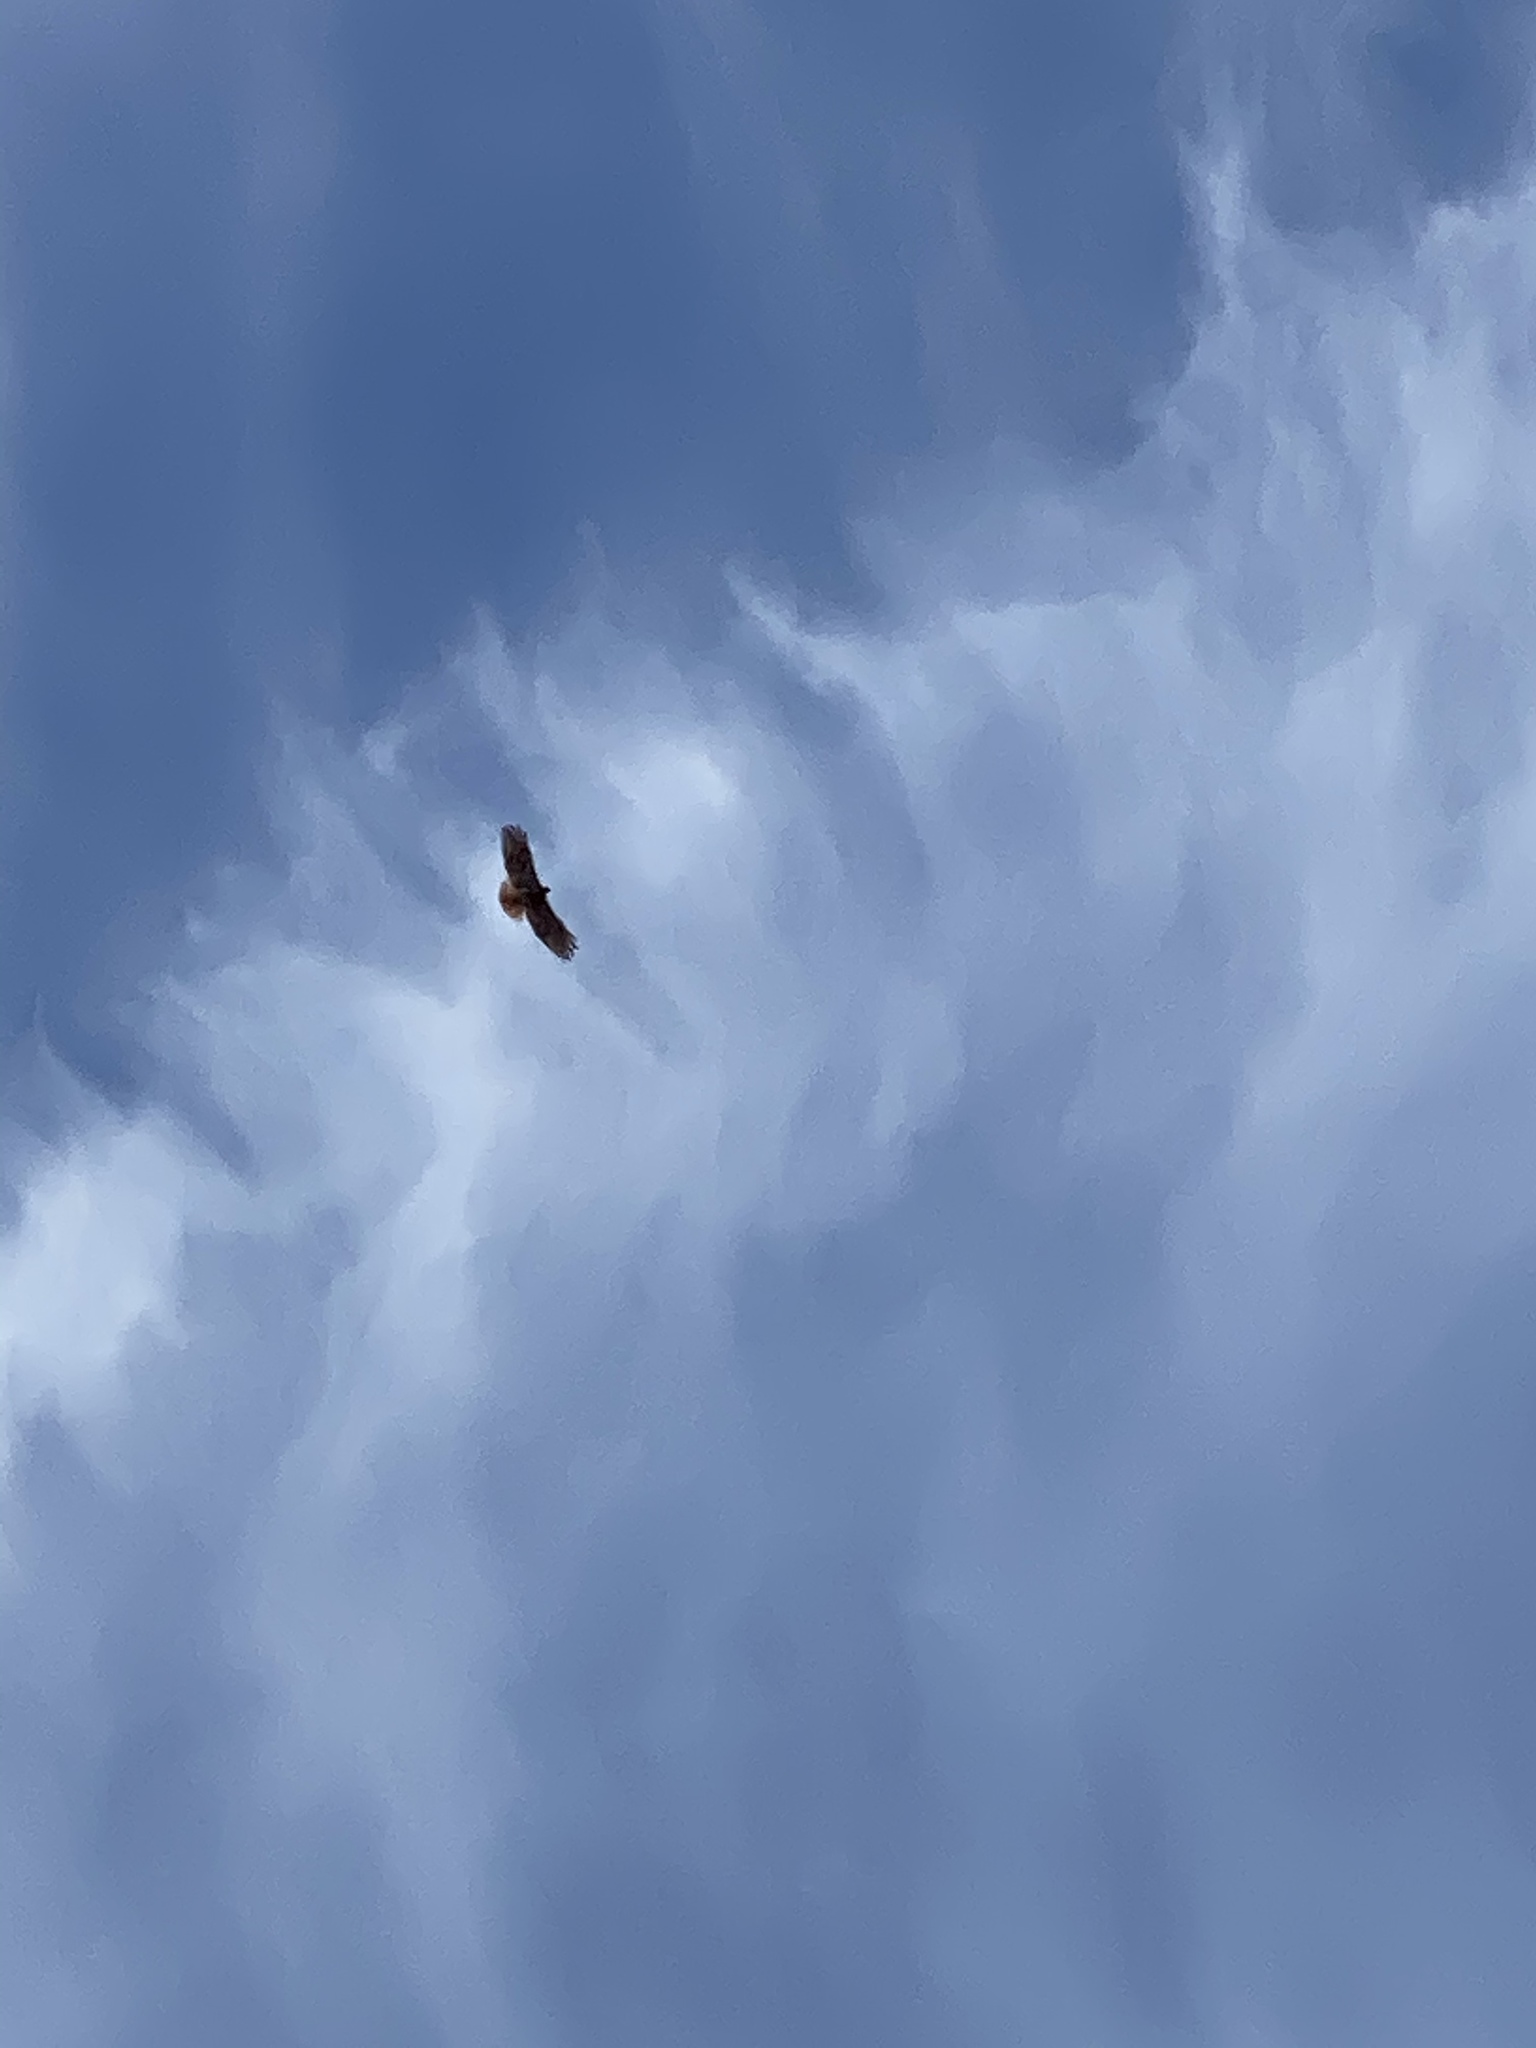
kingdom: Animalia
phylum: Chordata
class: Aves
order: Accipitriformes
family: Accipitridae
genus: Buteo
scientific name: Buteo jamaicensis
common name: Red-tailed hawk
